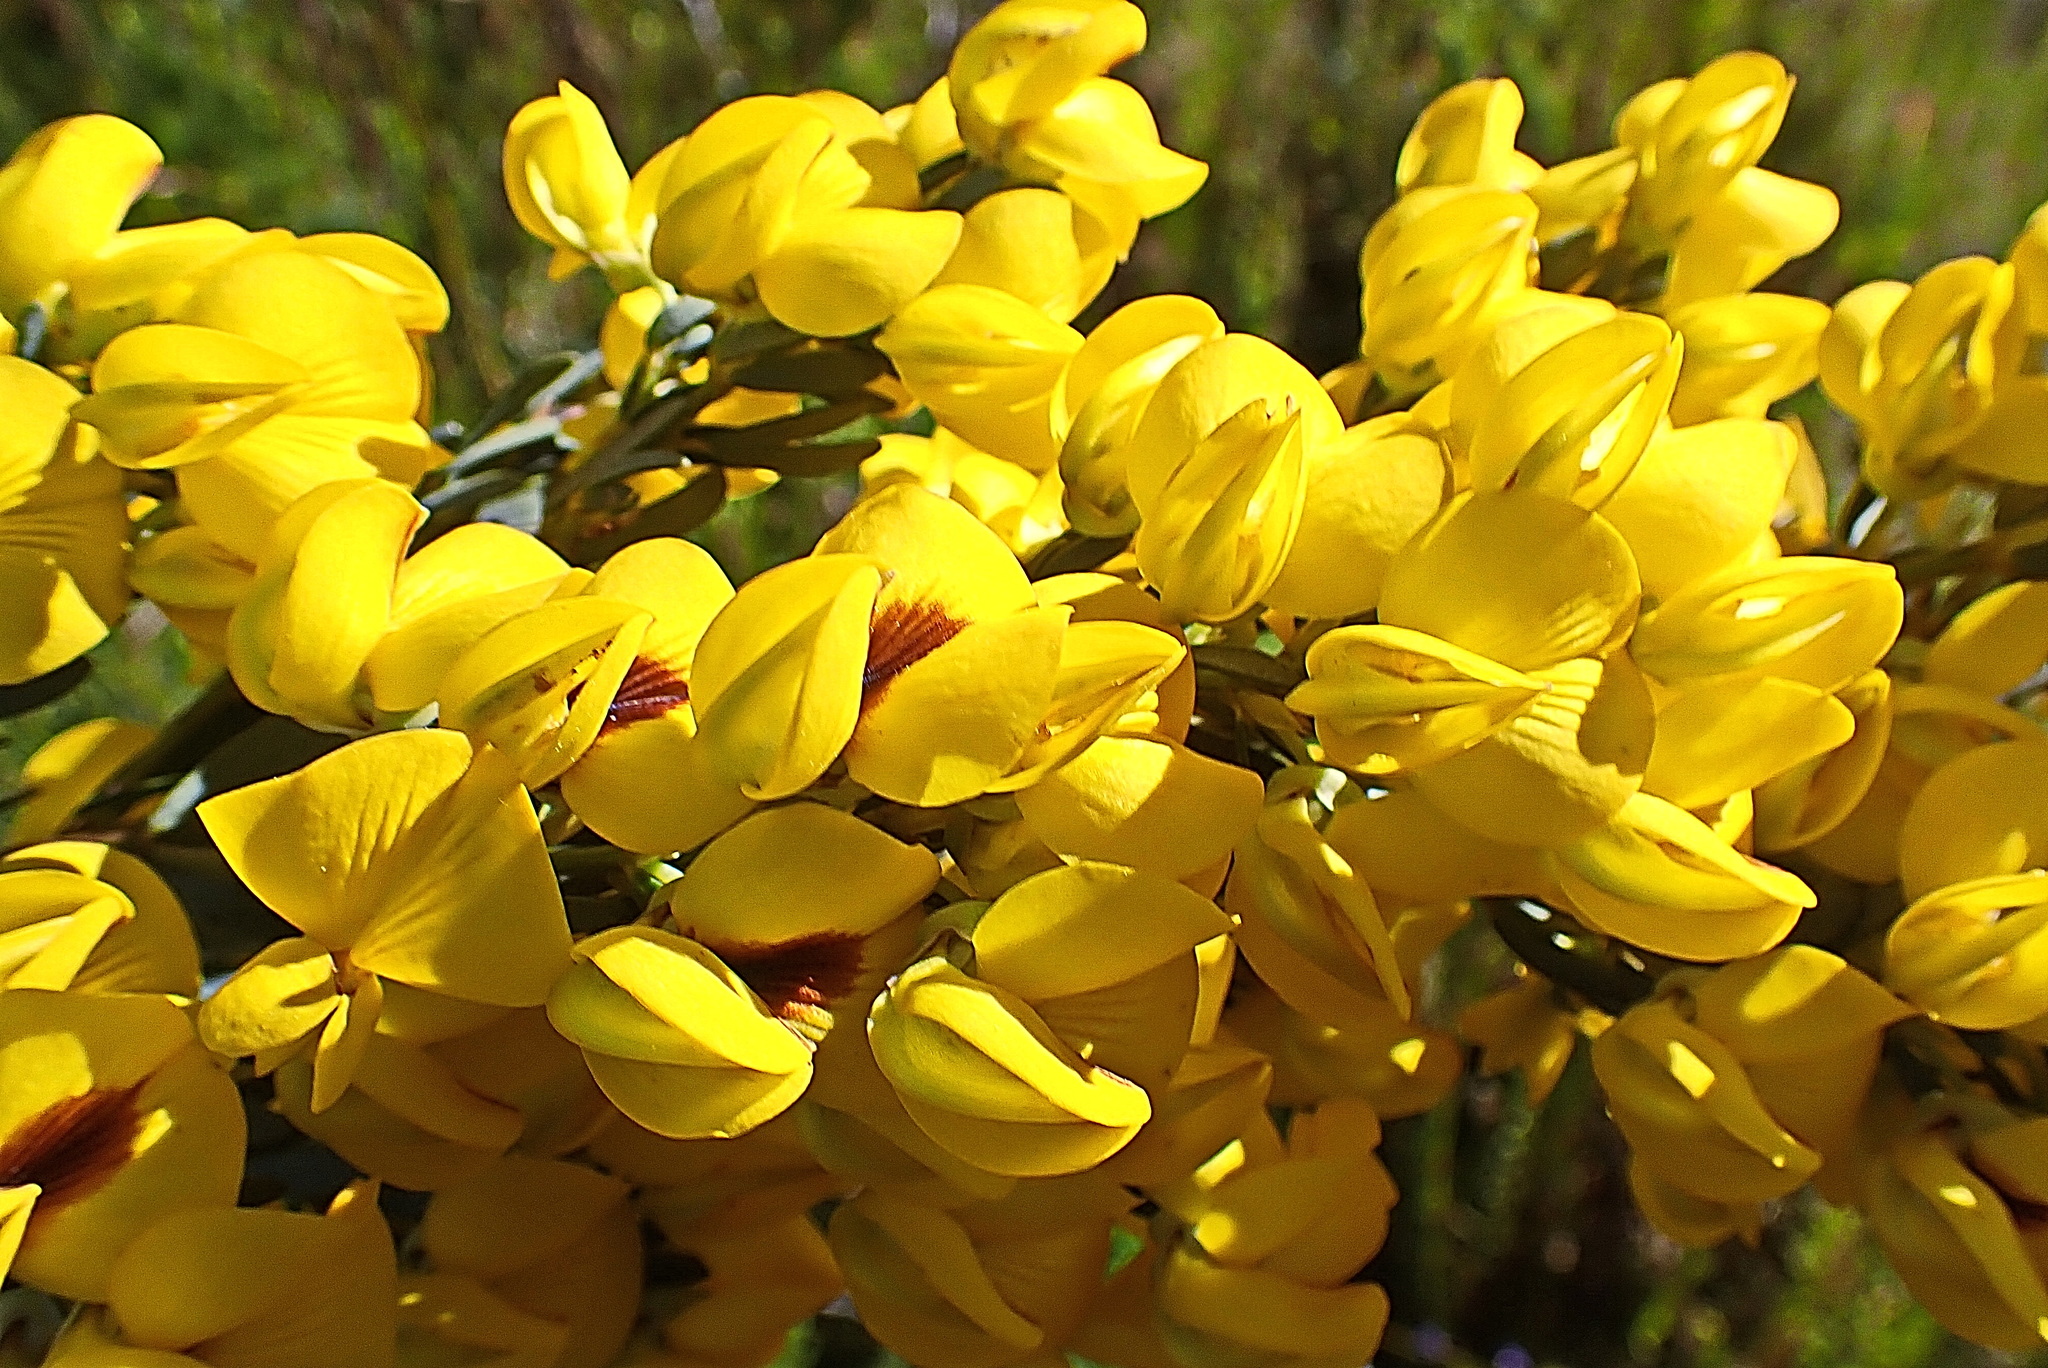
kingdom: Plantae
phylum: Tracheophyta
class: Magnoliopsida
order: Fabales
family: Fabaceae
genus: Cyclopia
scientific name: Cyclopia subternata
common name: Honeybush tea
